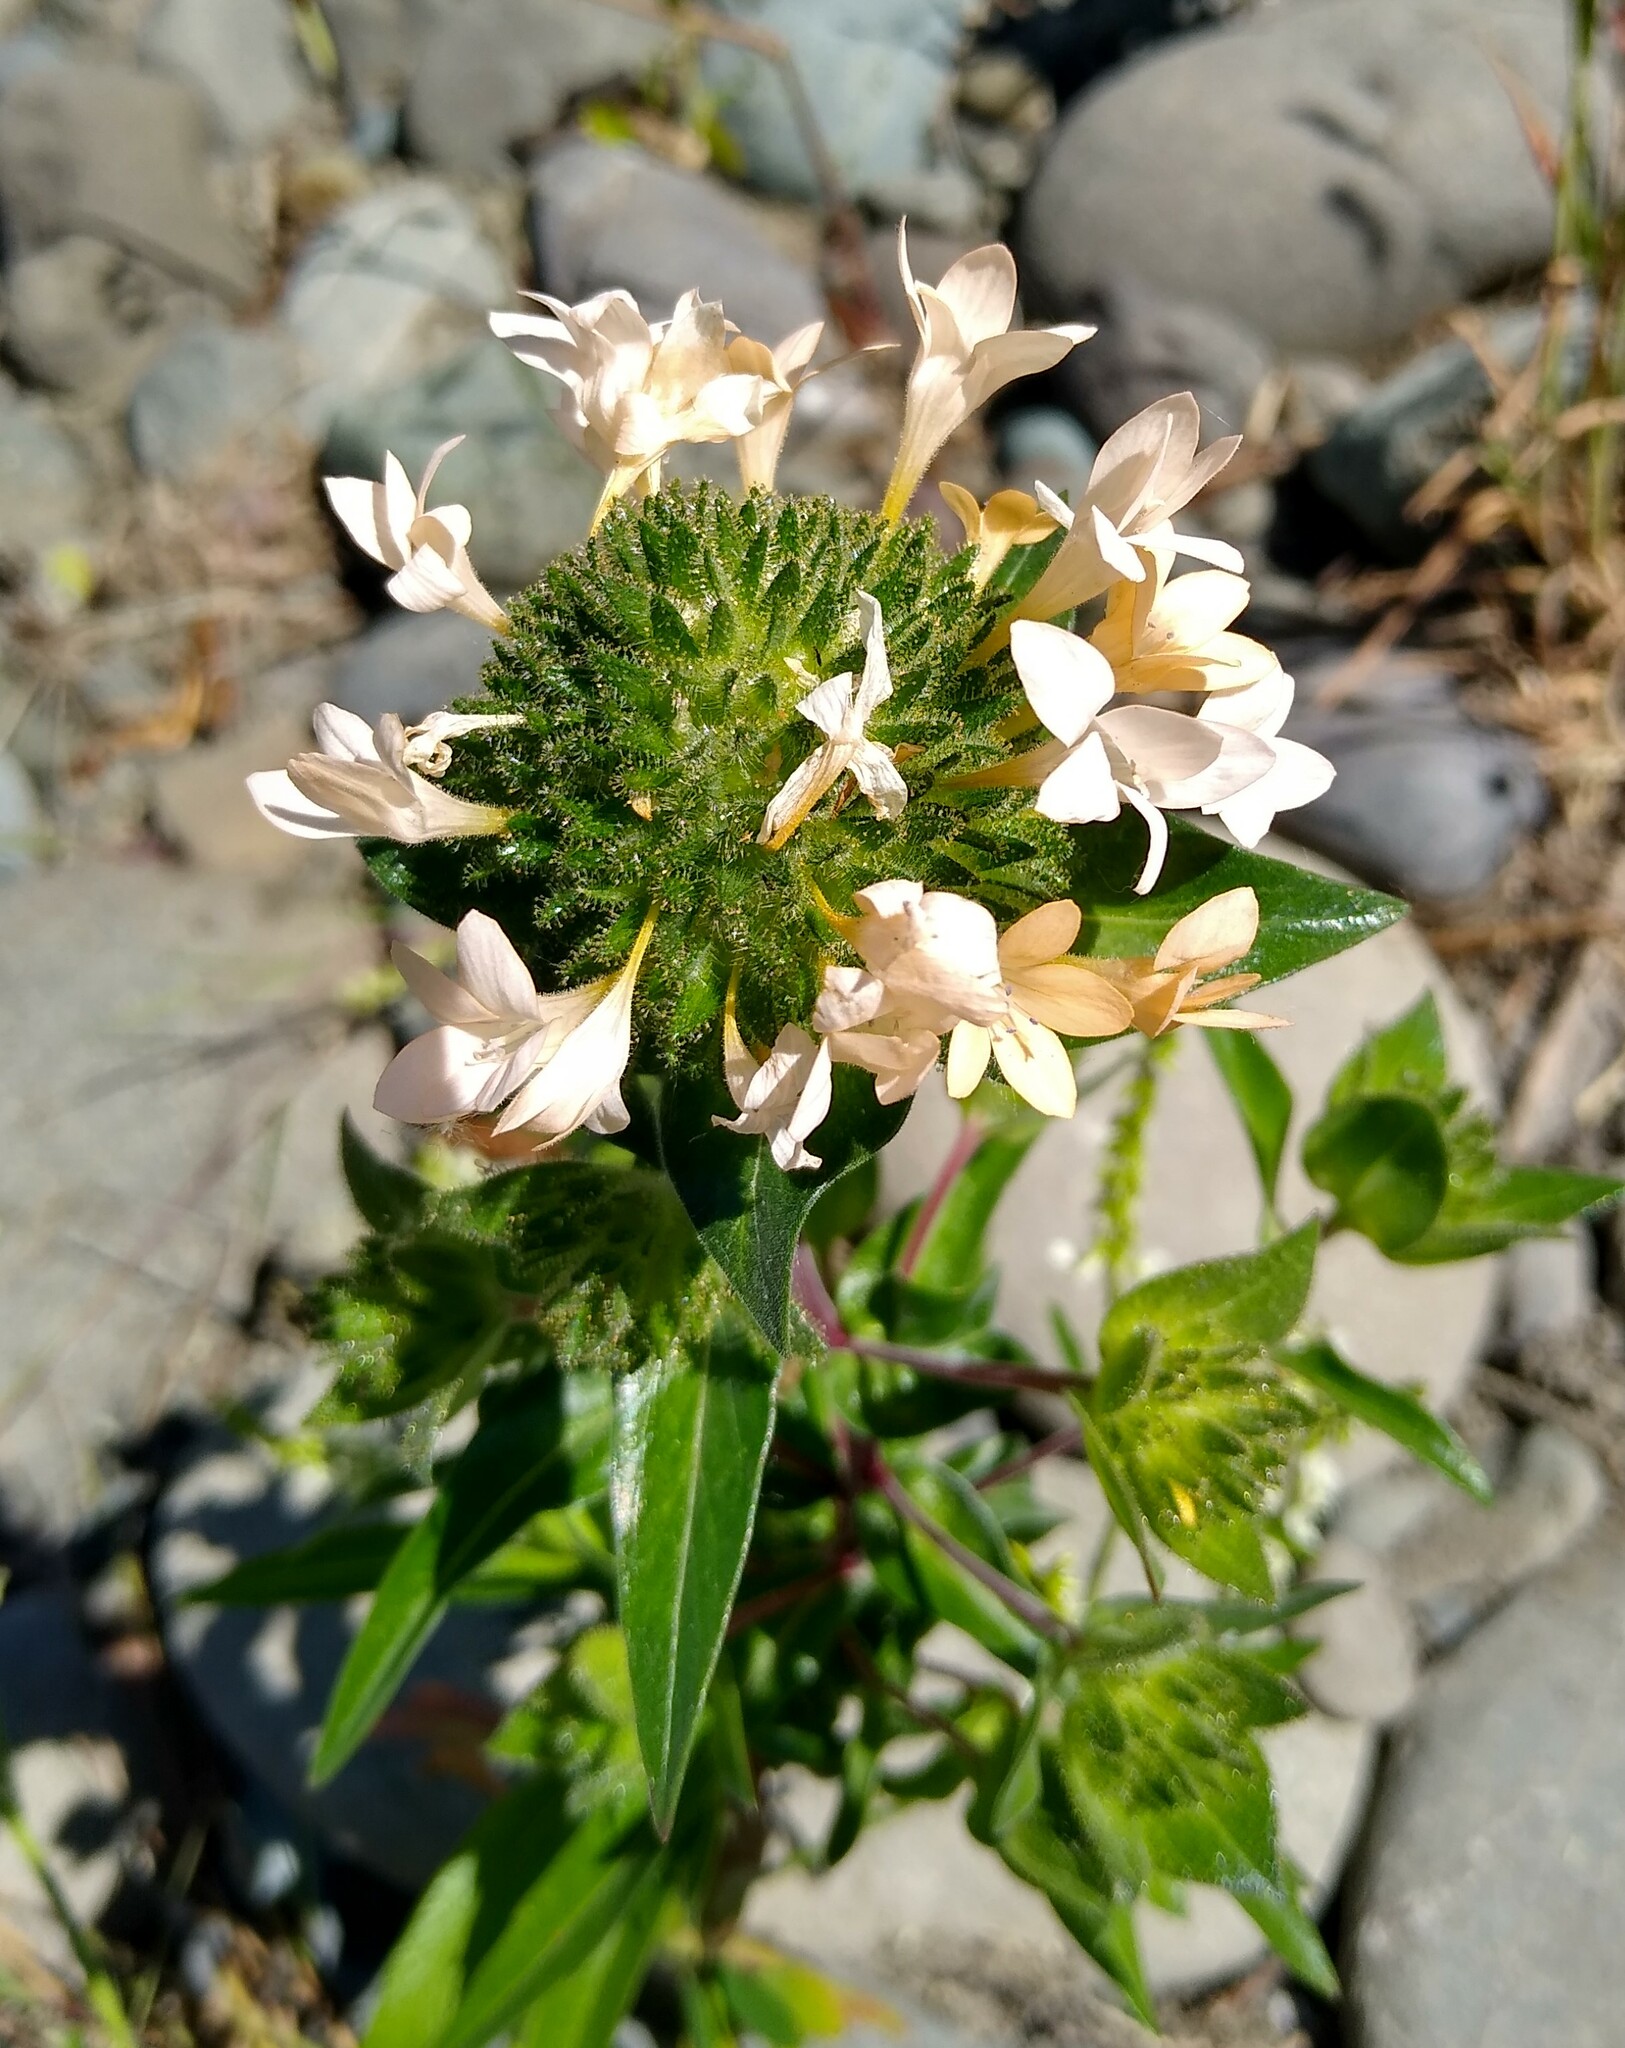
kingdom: Plantae
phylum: Tracheophyta
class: Magnoliopsida
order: Ericales
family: Polemoniaceae
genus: Collomia
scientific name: Collomia grandiflora
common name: California strawflower
